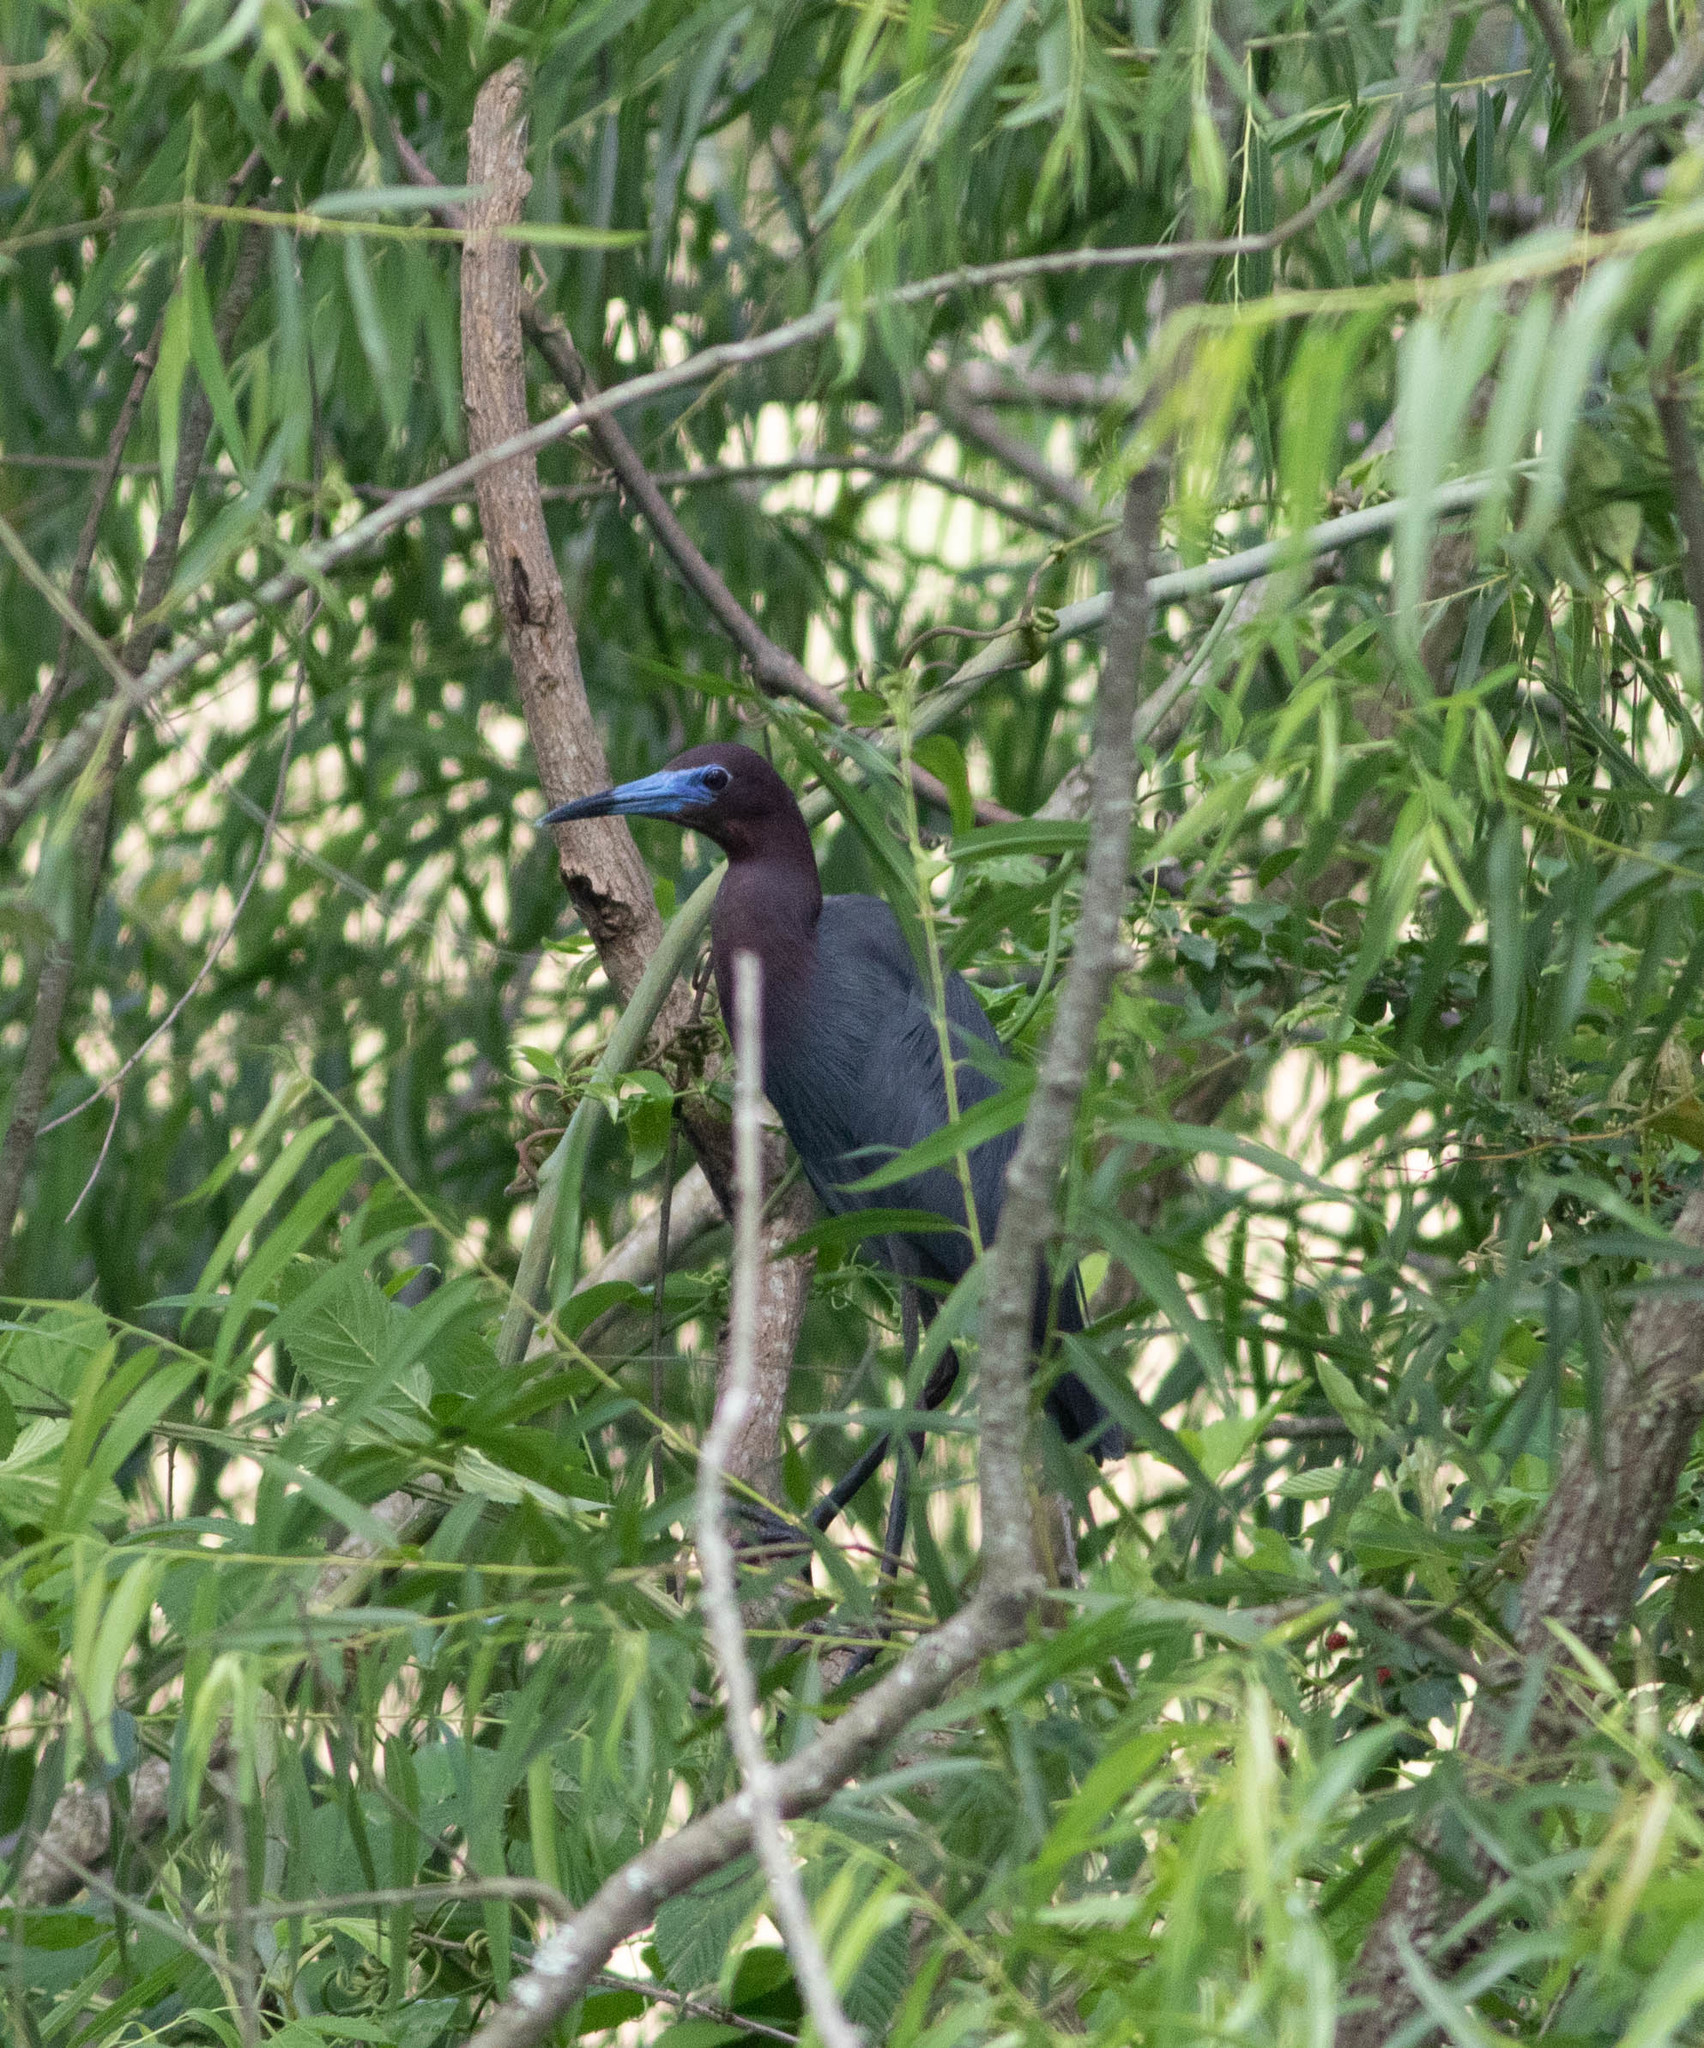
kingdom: Animalia
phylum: Chordata
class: Aves
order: Pelecaniformes
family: Ardeidae
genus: Egretta
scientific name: Egretta caerulea
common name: Little blue heron
